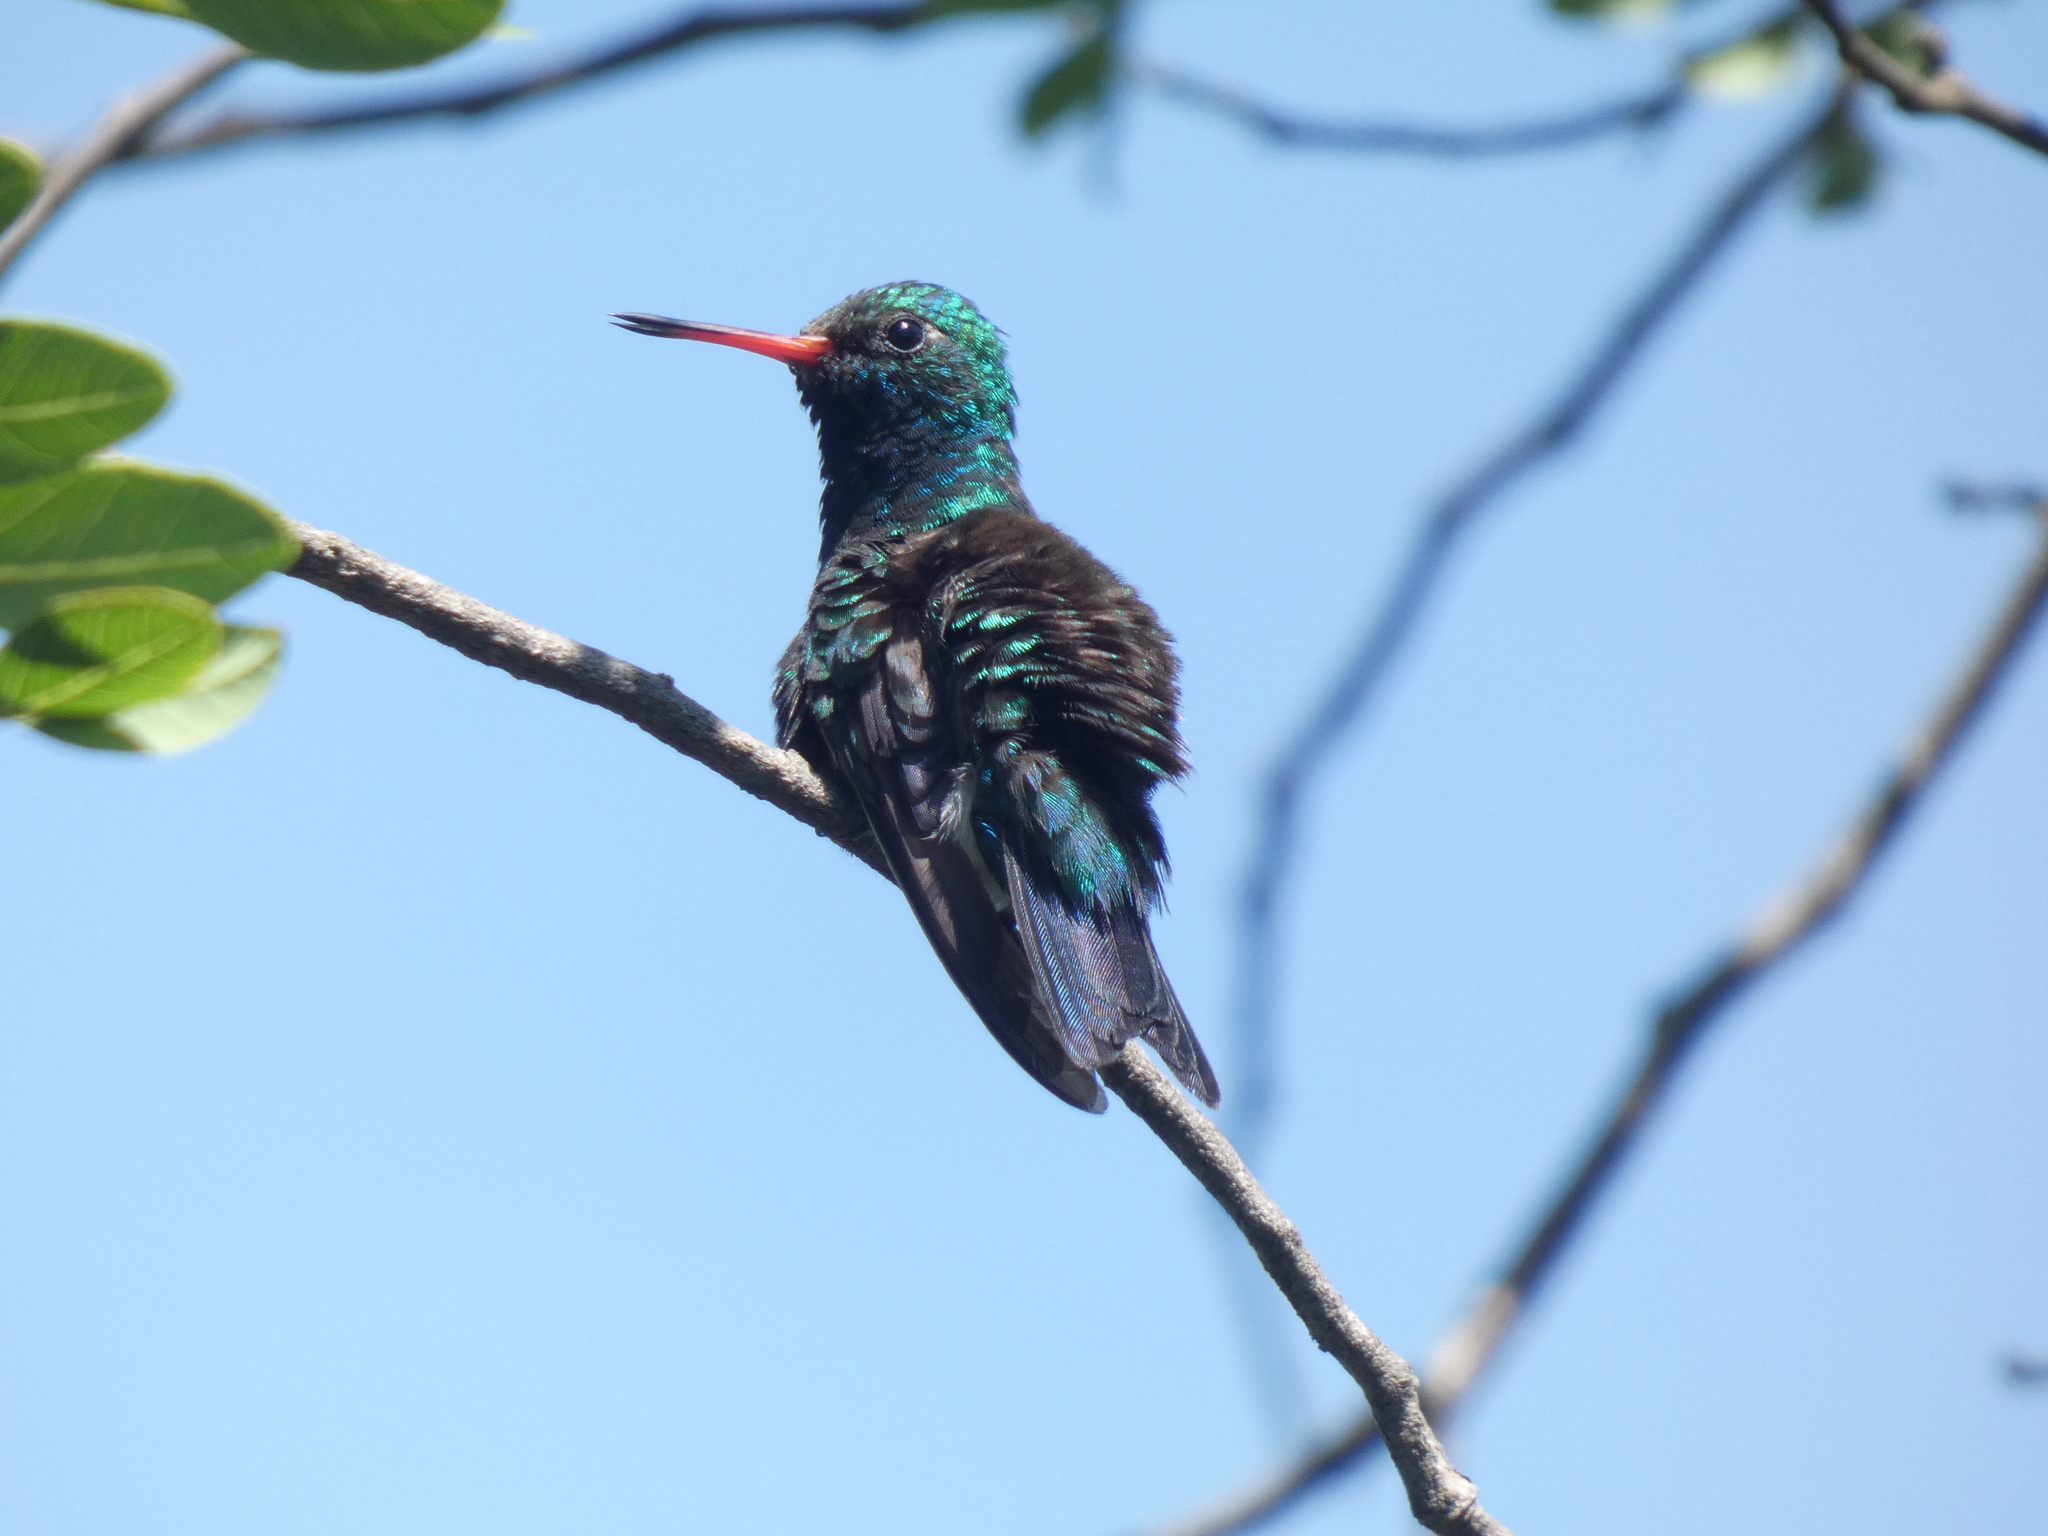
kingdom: Animalia
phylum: Chordata
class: Aves
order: Apodiformes
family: Trochilidae
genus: Chlorostilbon
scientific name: Chlorostilbon lucidus
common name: Glittering-bellied emerald
